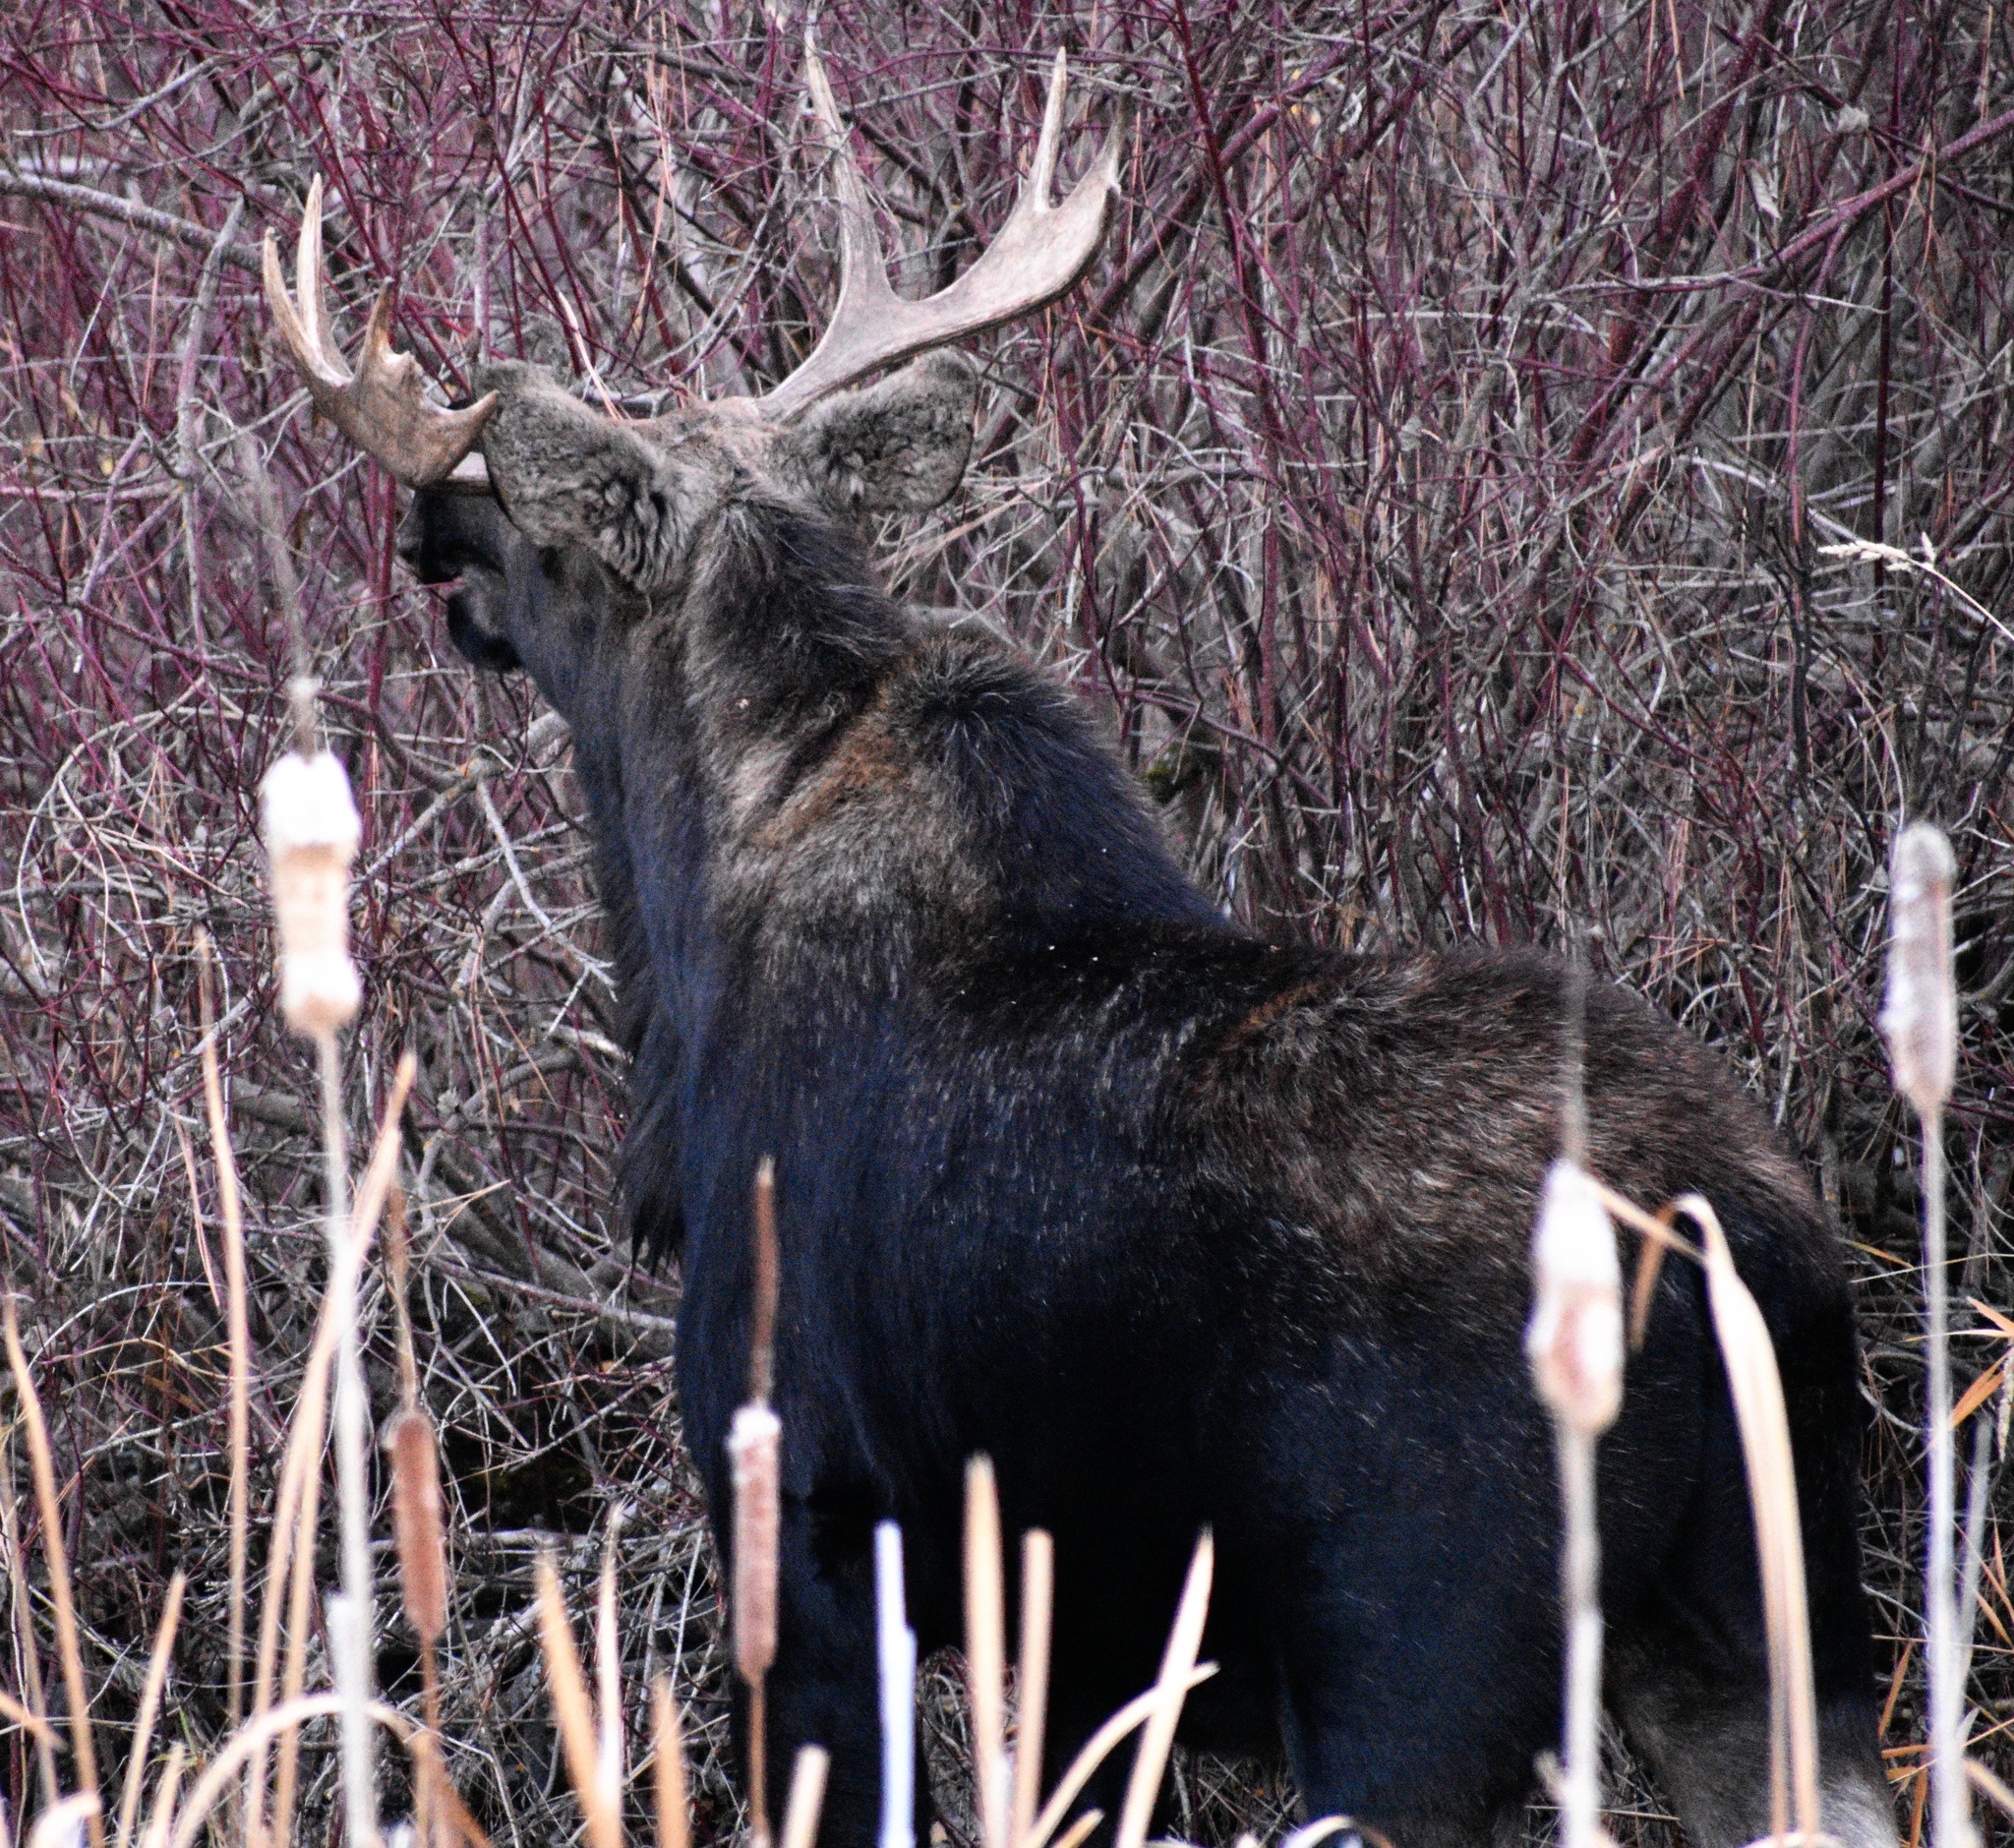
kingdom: Animalia
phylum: Chordata
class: Mammalia
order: Artiodactyla
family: Cervidae
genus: Alces
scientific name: Alces alces
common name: Moose
